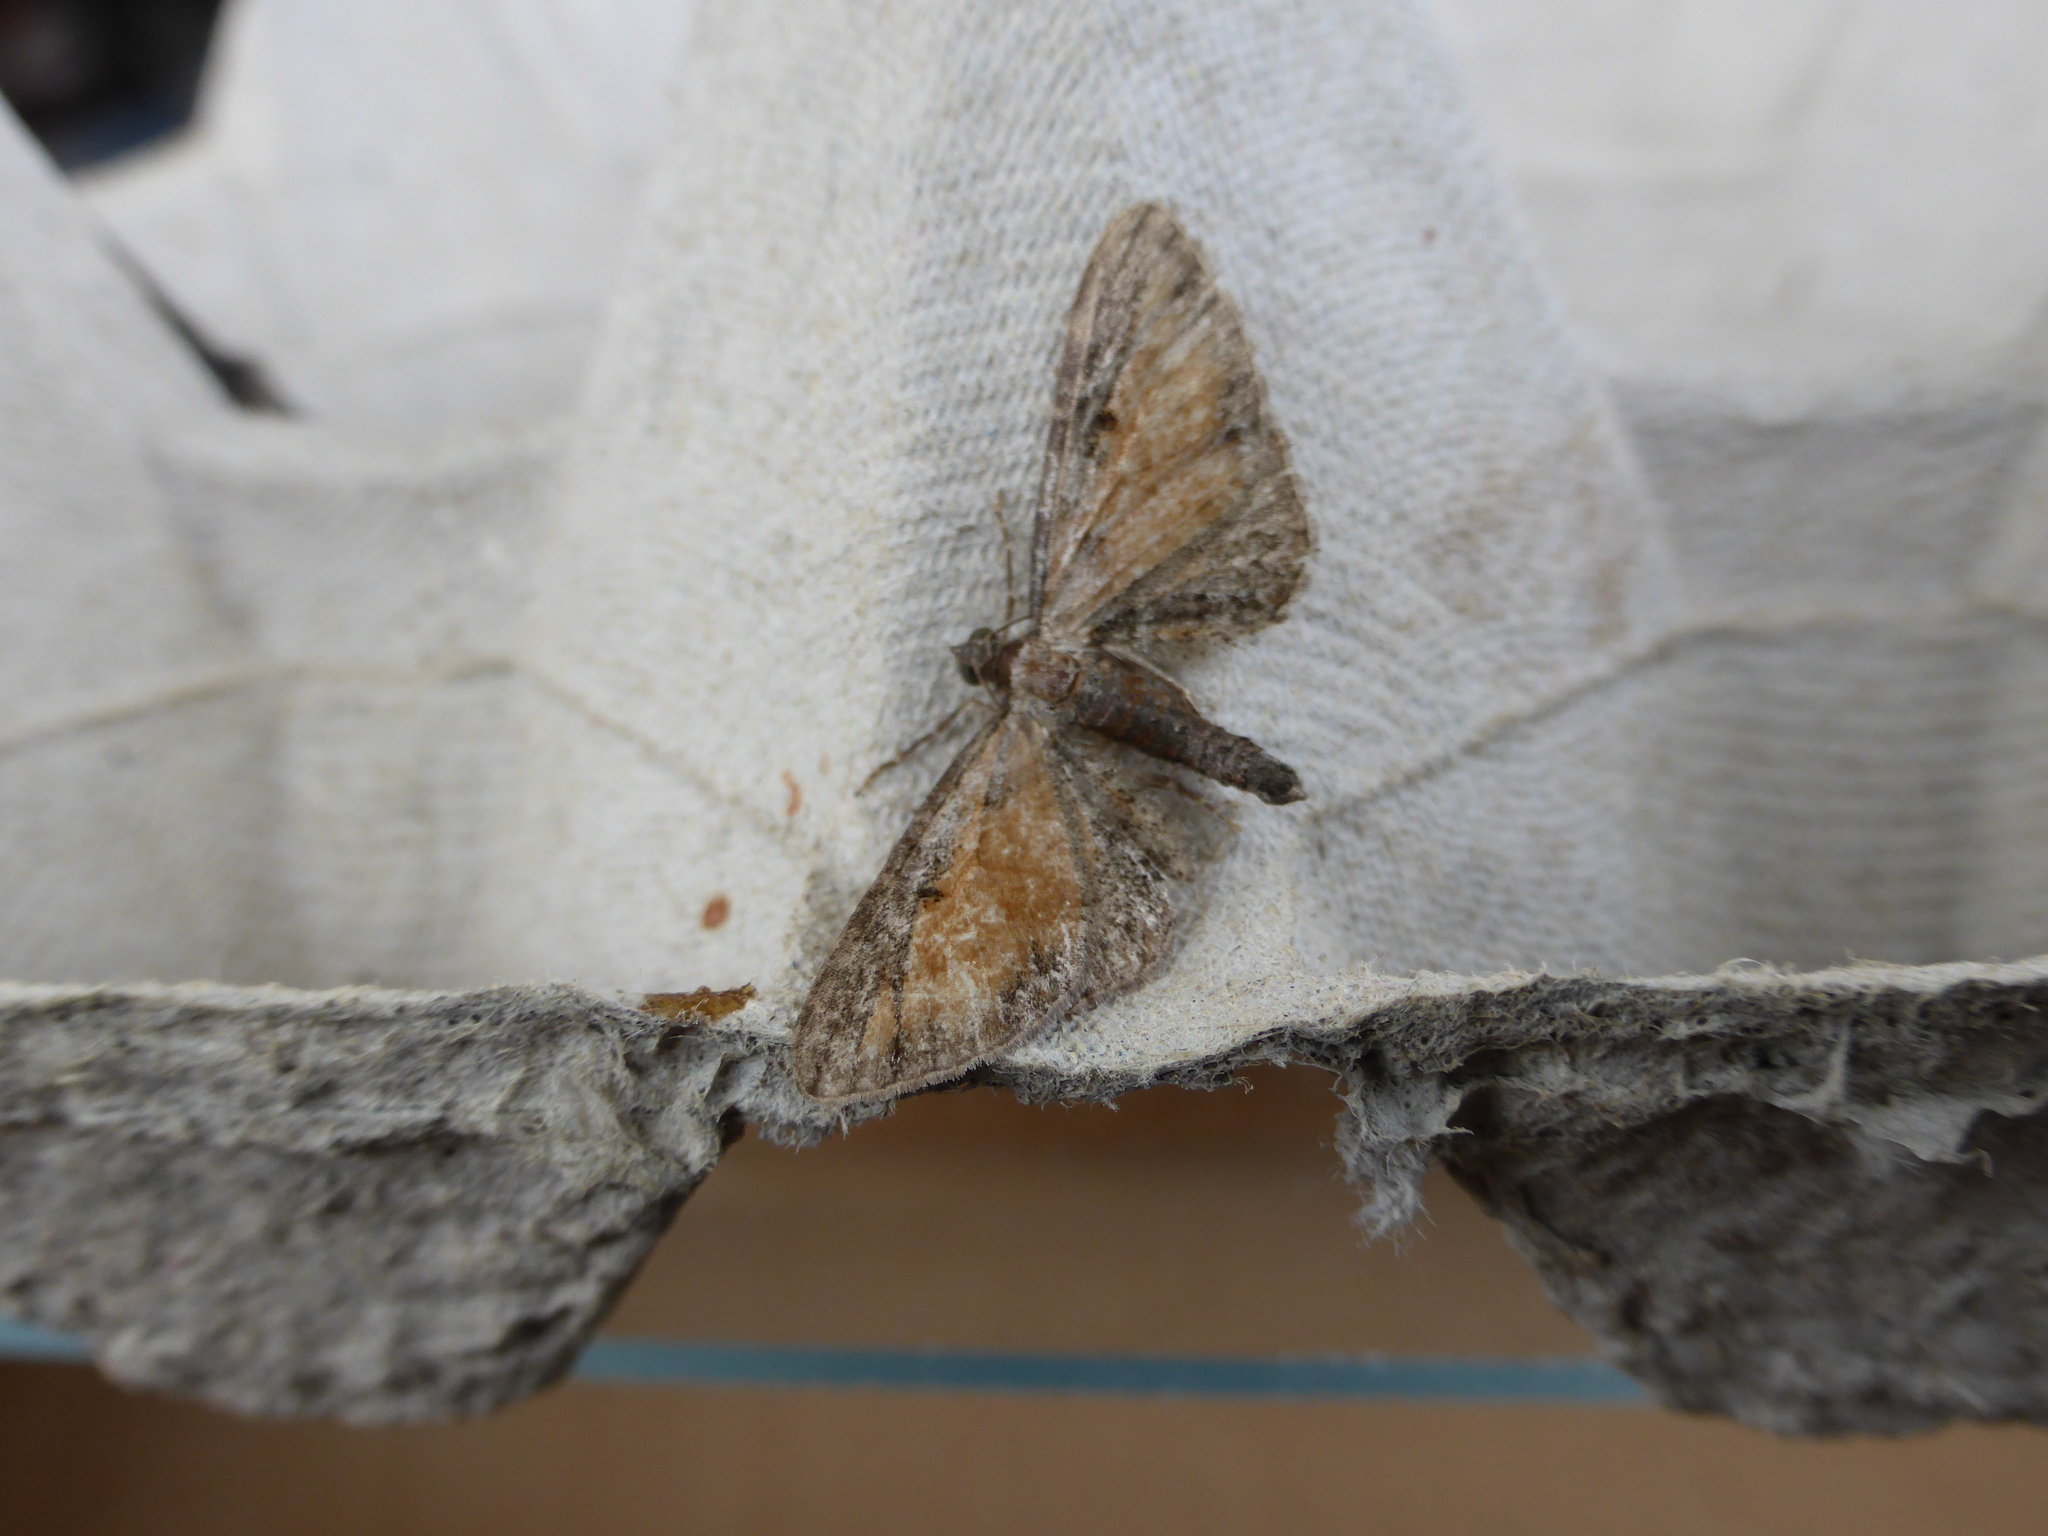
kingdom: Animalia
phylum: Arthropoda
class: Insecta
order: Lepidoptera
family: Geometridae
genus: Eupithecia
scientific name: Eupithecia icterata
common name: Tawny speckled pug
